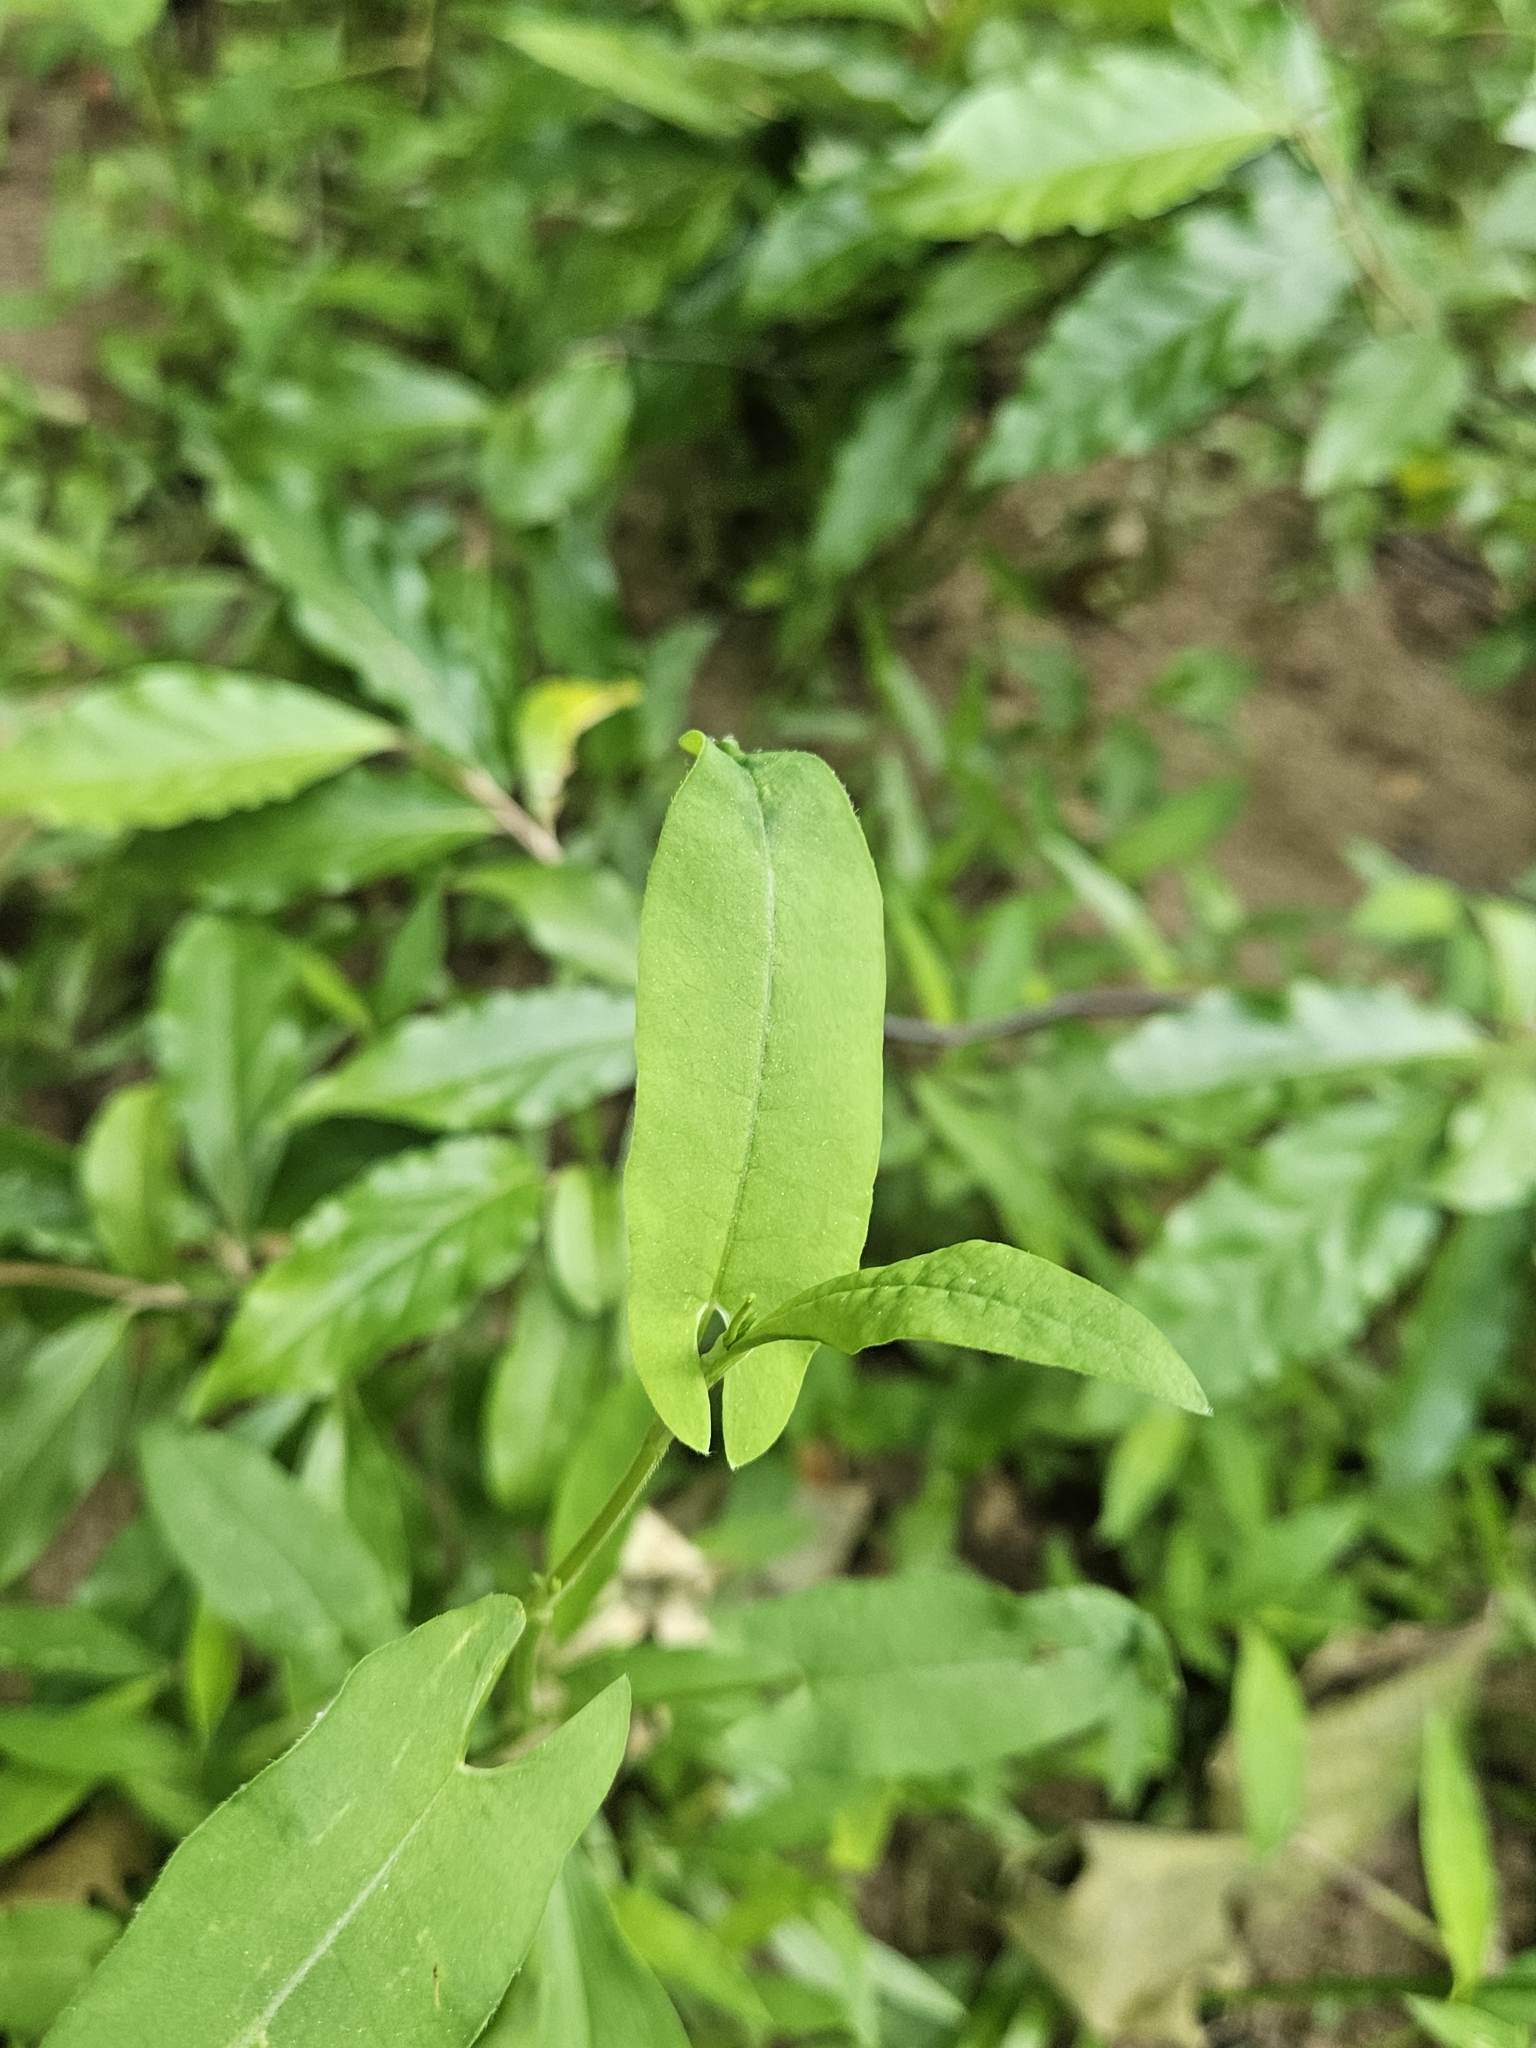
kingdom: Plantae
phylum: Tracheophyta
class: Magnoliopsida
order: Caryophyllales
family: Polygonaceae
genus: Persicaria
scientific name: Persicaria sagittata
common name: American tearthumb
